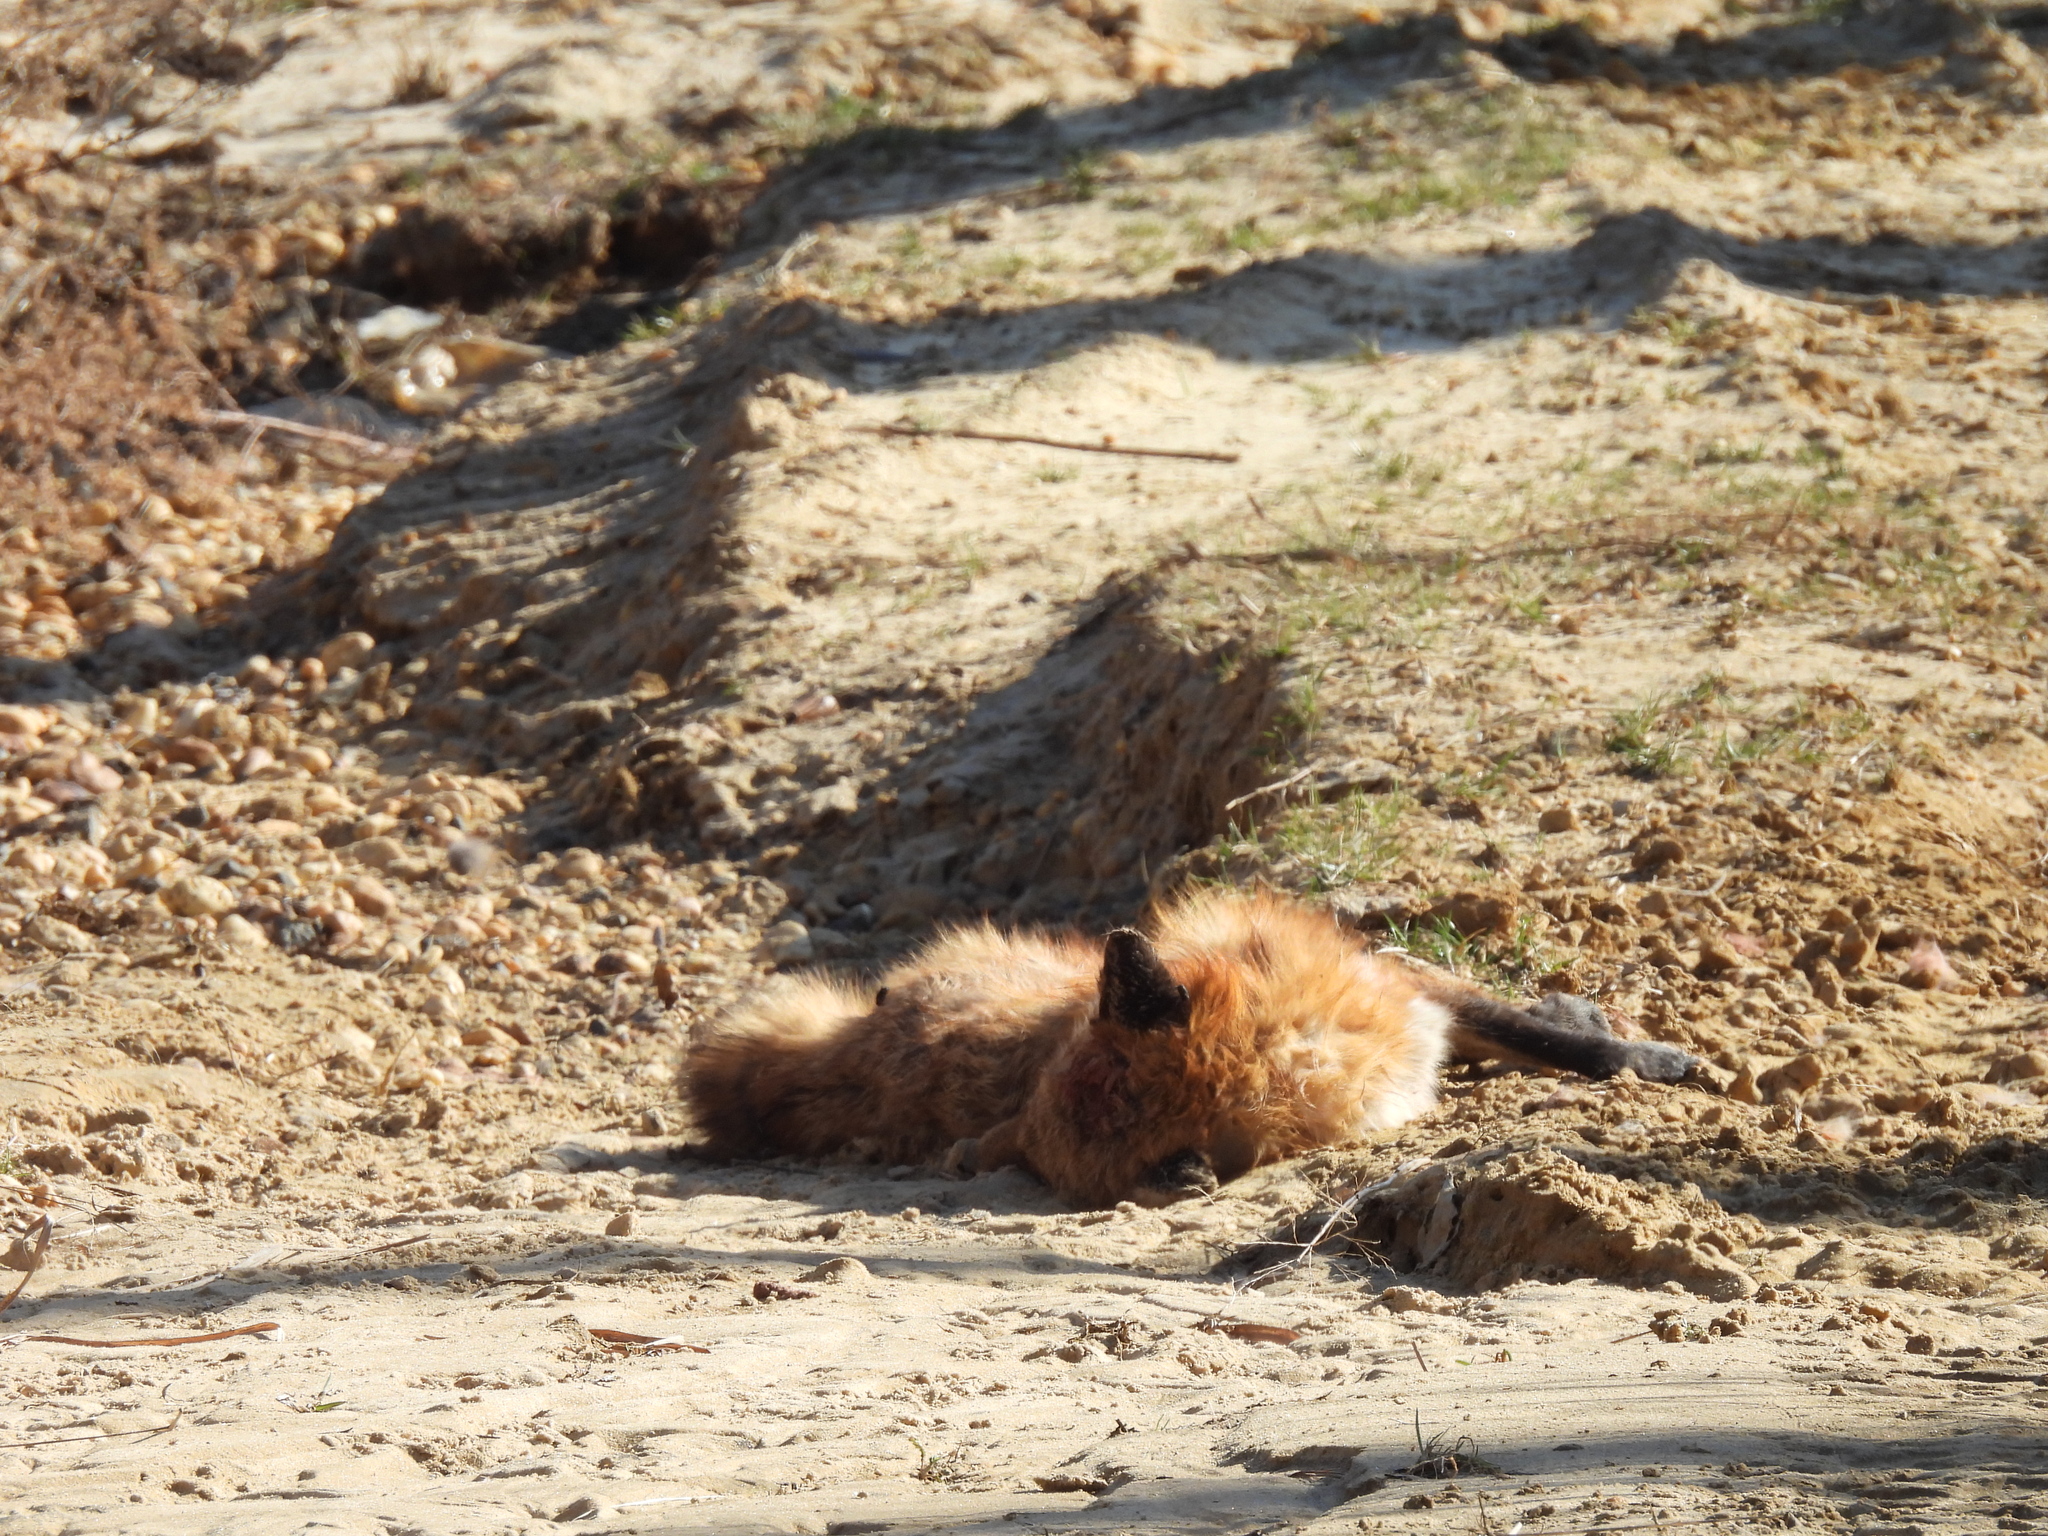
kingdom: Animalia
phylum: Chordata
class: Mammalia
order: Carnivora
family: Canidae
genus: Vulpes
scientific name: Vulpes vulpes
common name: Red fox
